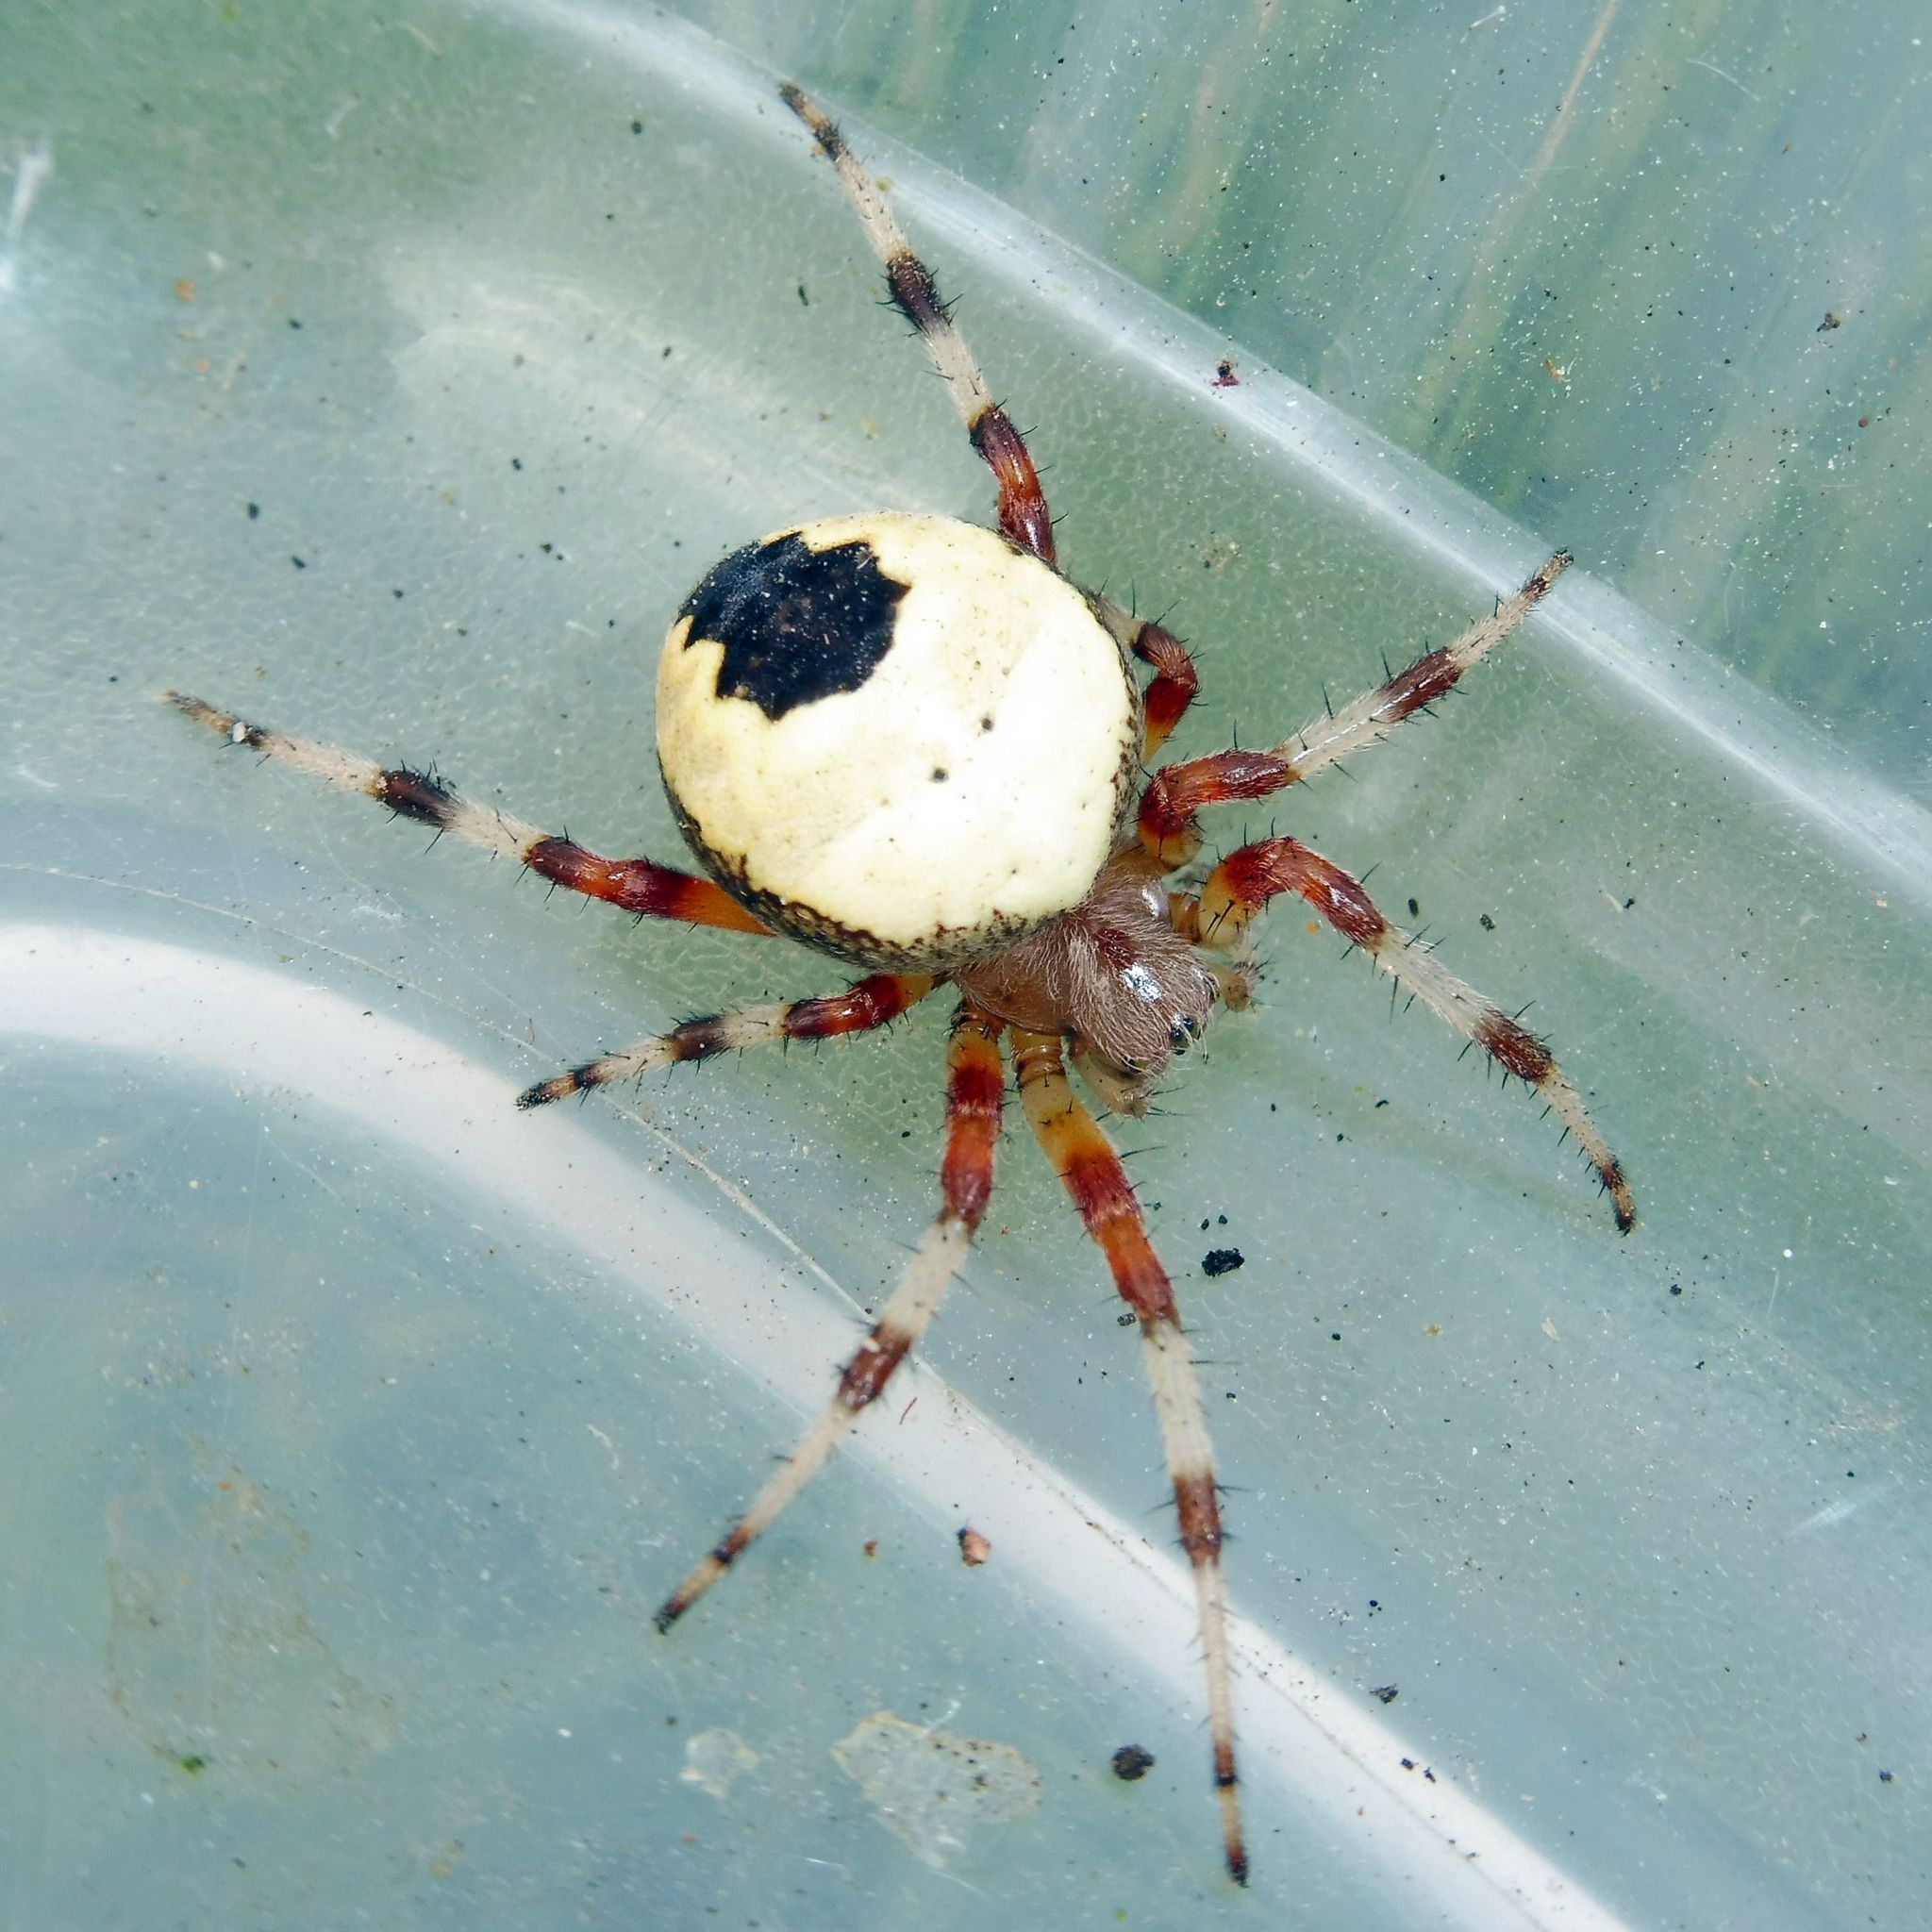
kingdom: Animalia
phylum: Arthropoda
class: Arachnida
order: Araneae
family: Araneidae
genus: Araneus
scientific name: Araneus marmoreus
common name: Marbled orbweaver
